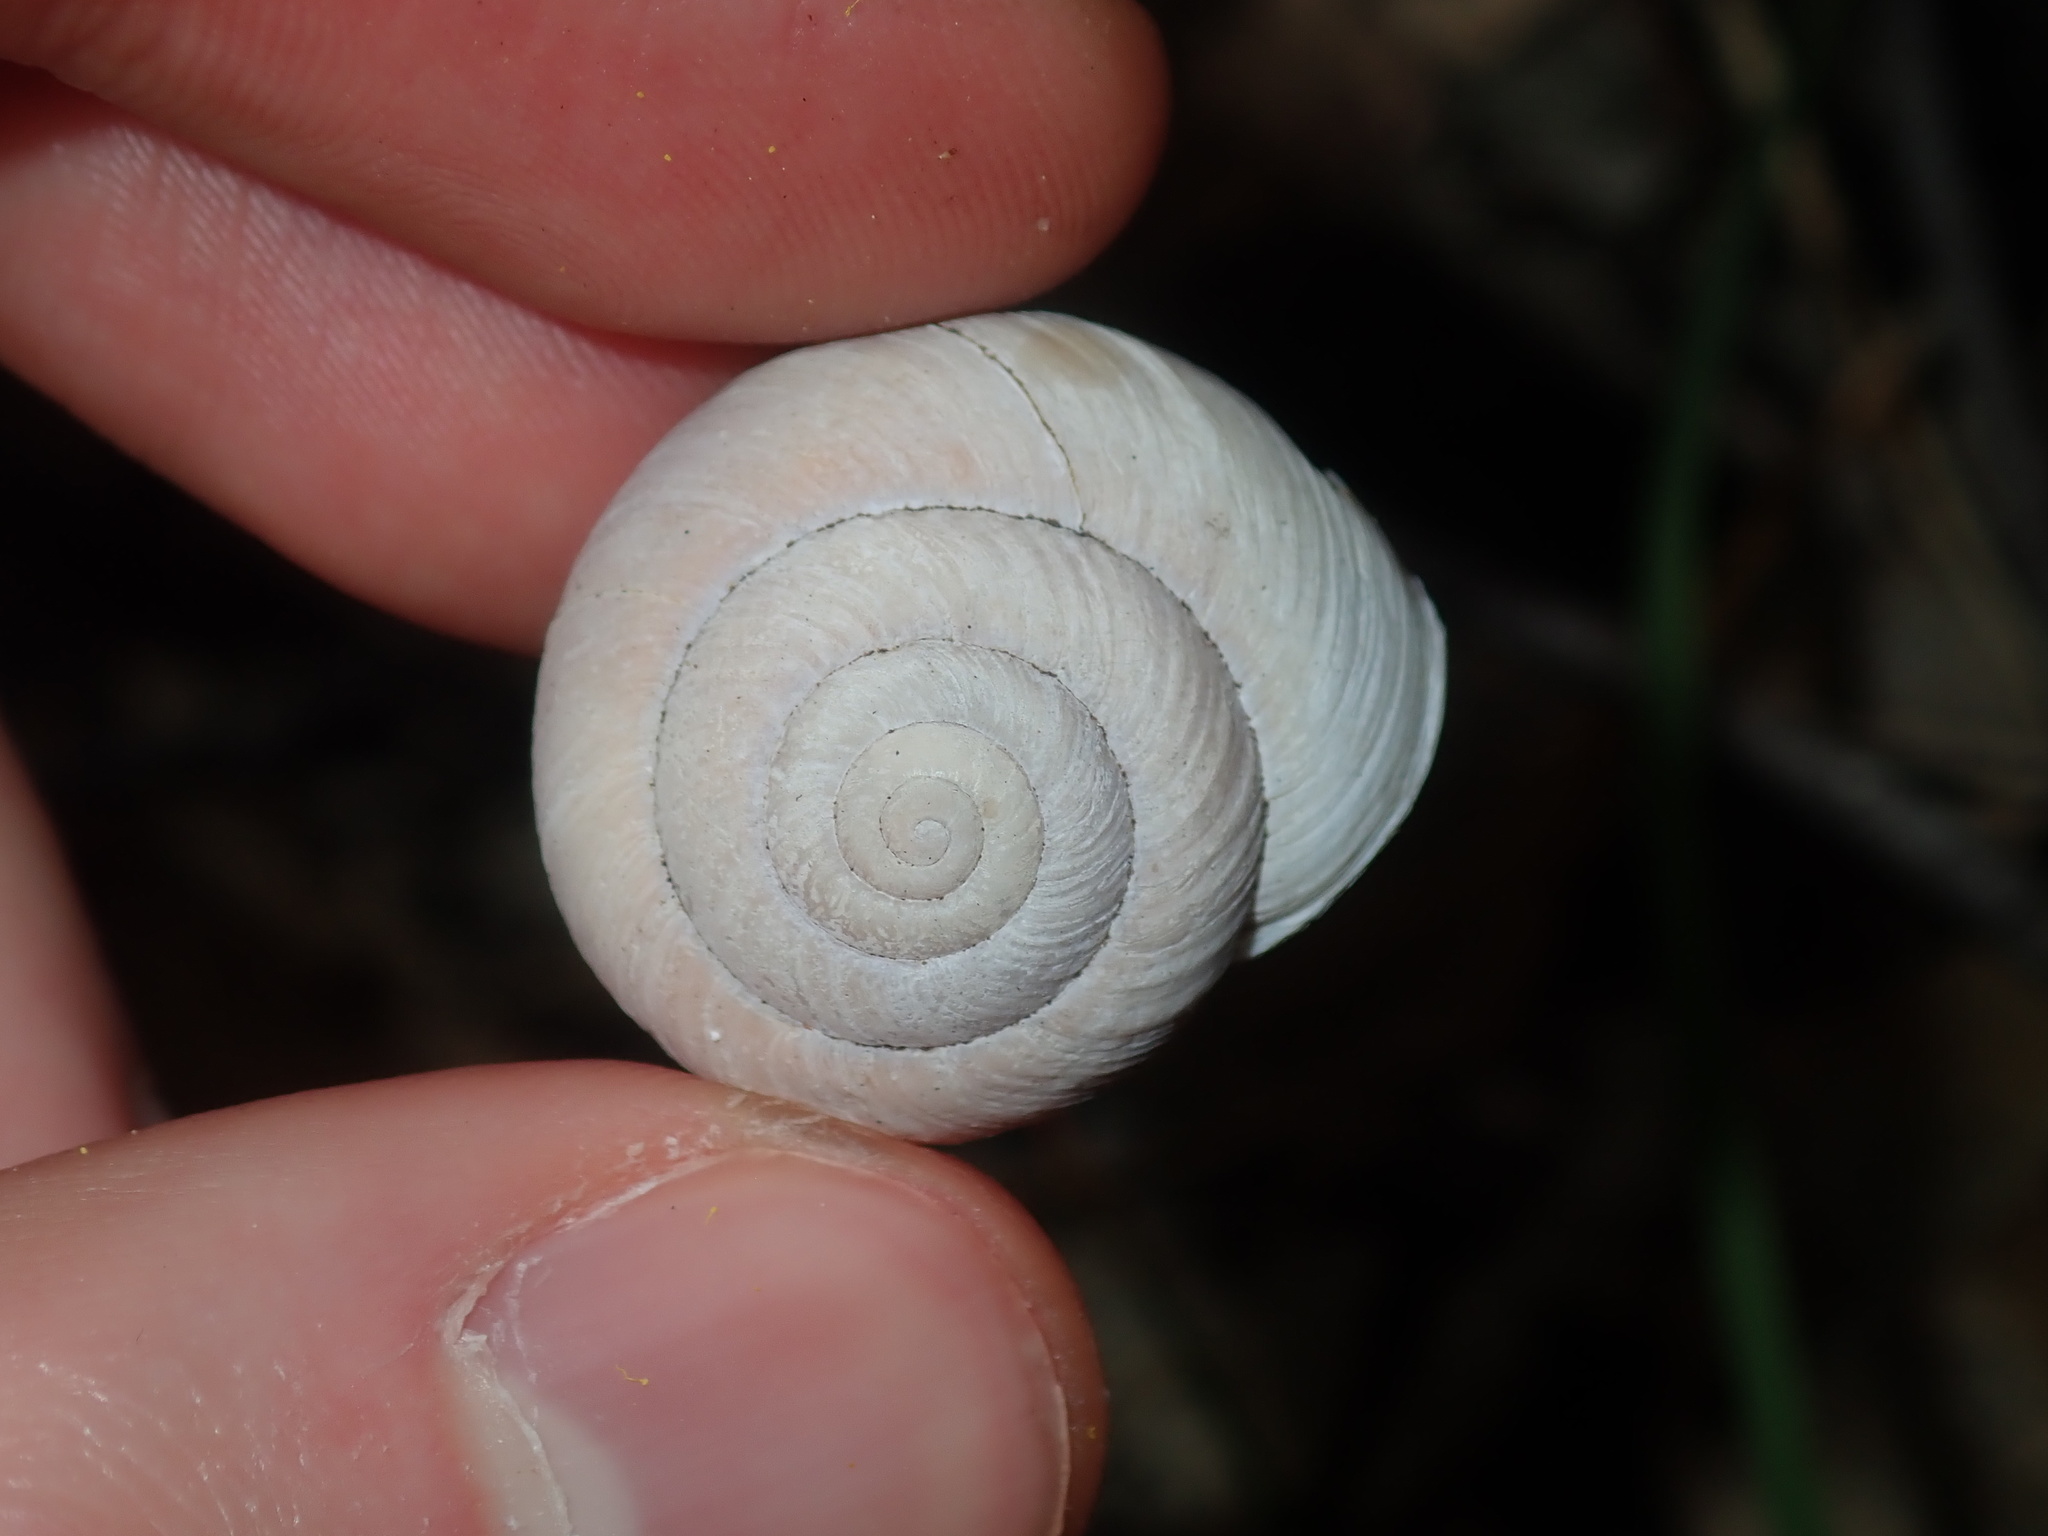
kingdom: Animalia
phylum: Mollusca
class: Gastropoda
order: Stylommatophora
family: Camaenidae
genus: Sauroconcha
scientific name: Sauroconcha sheai
